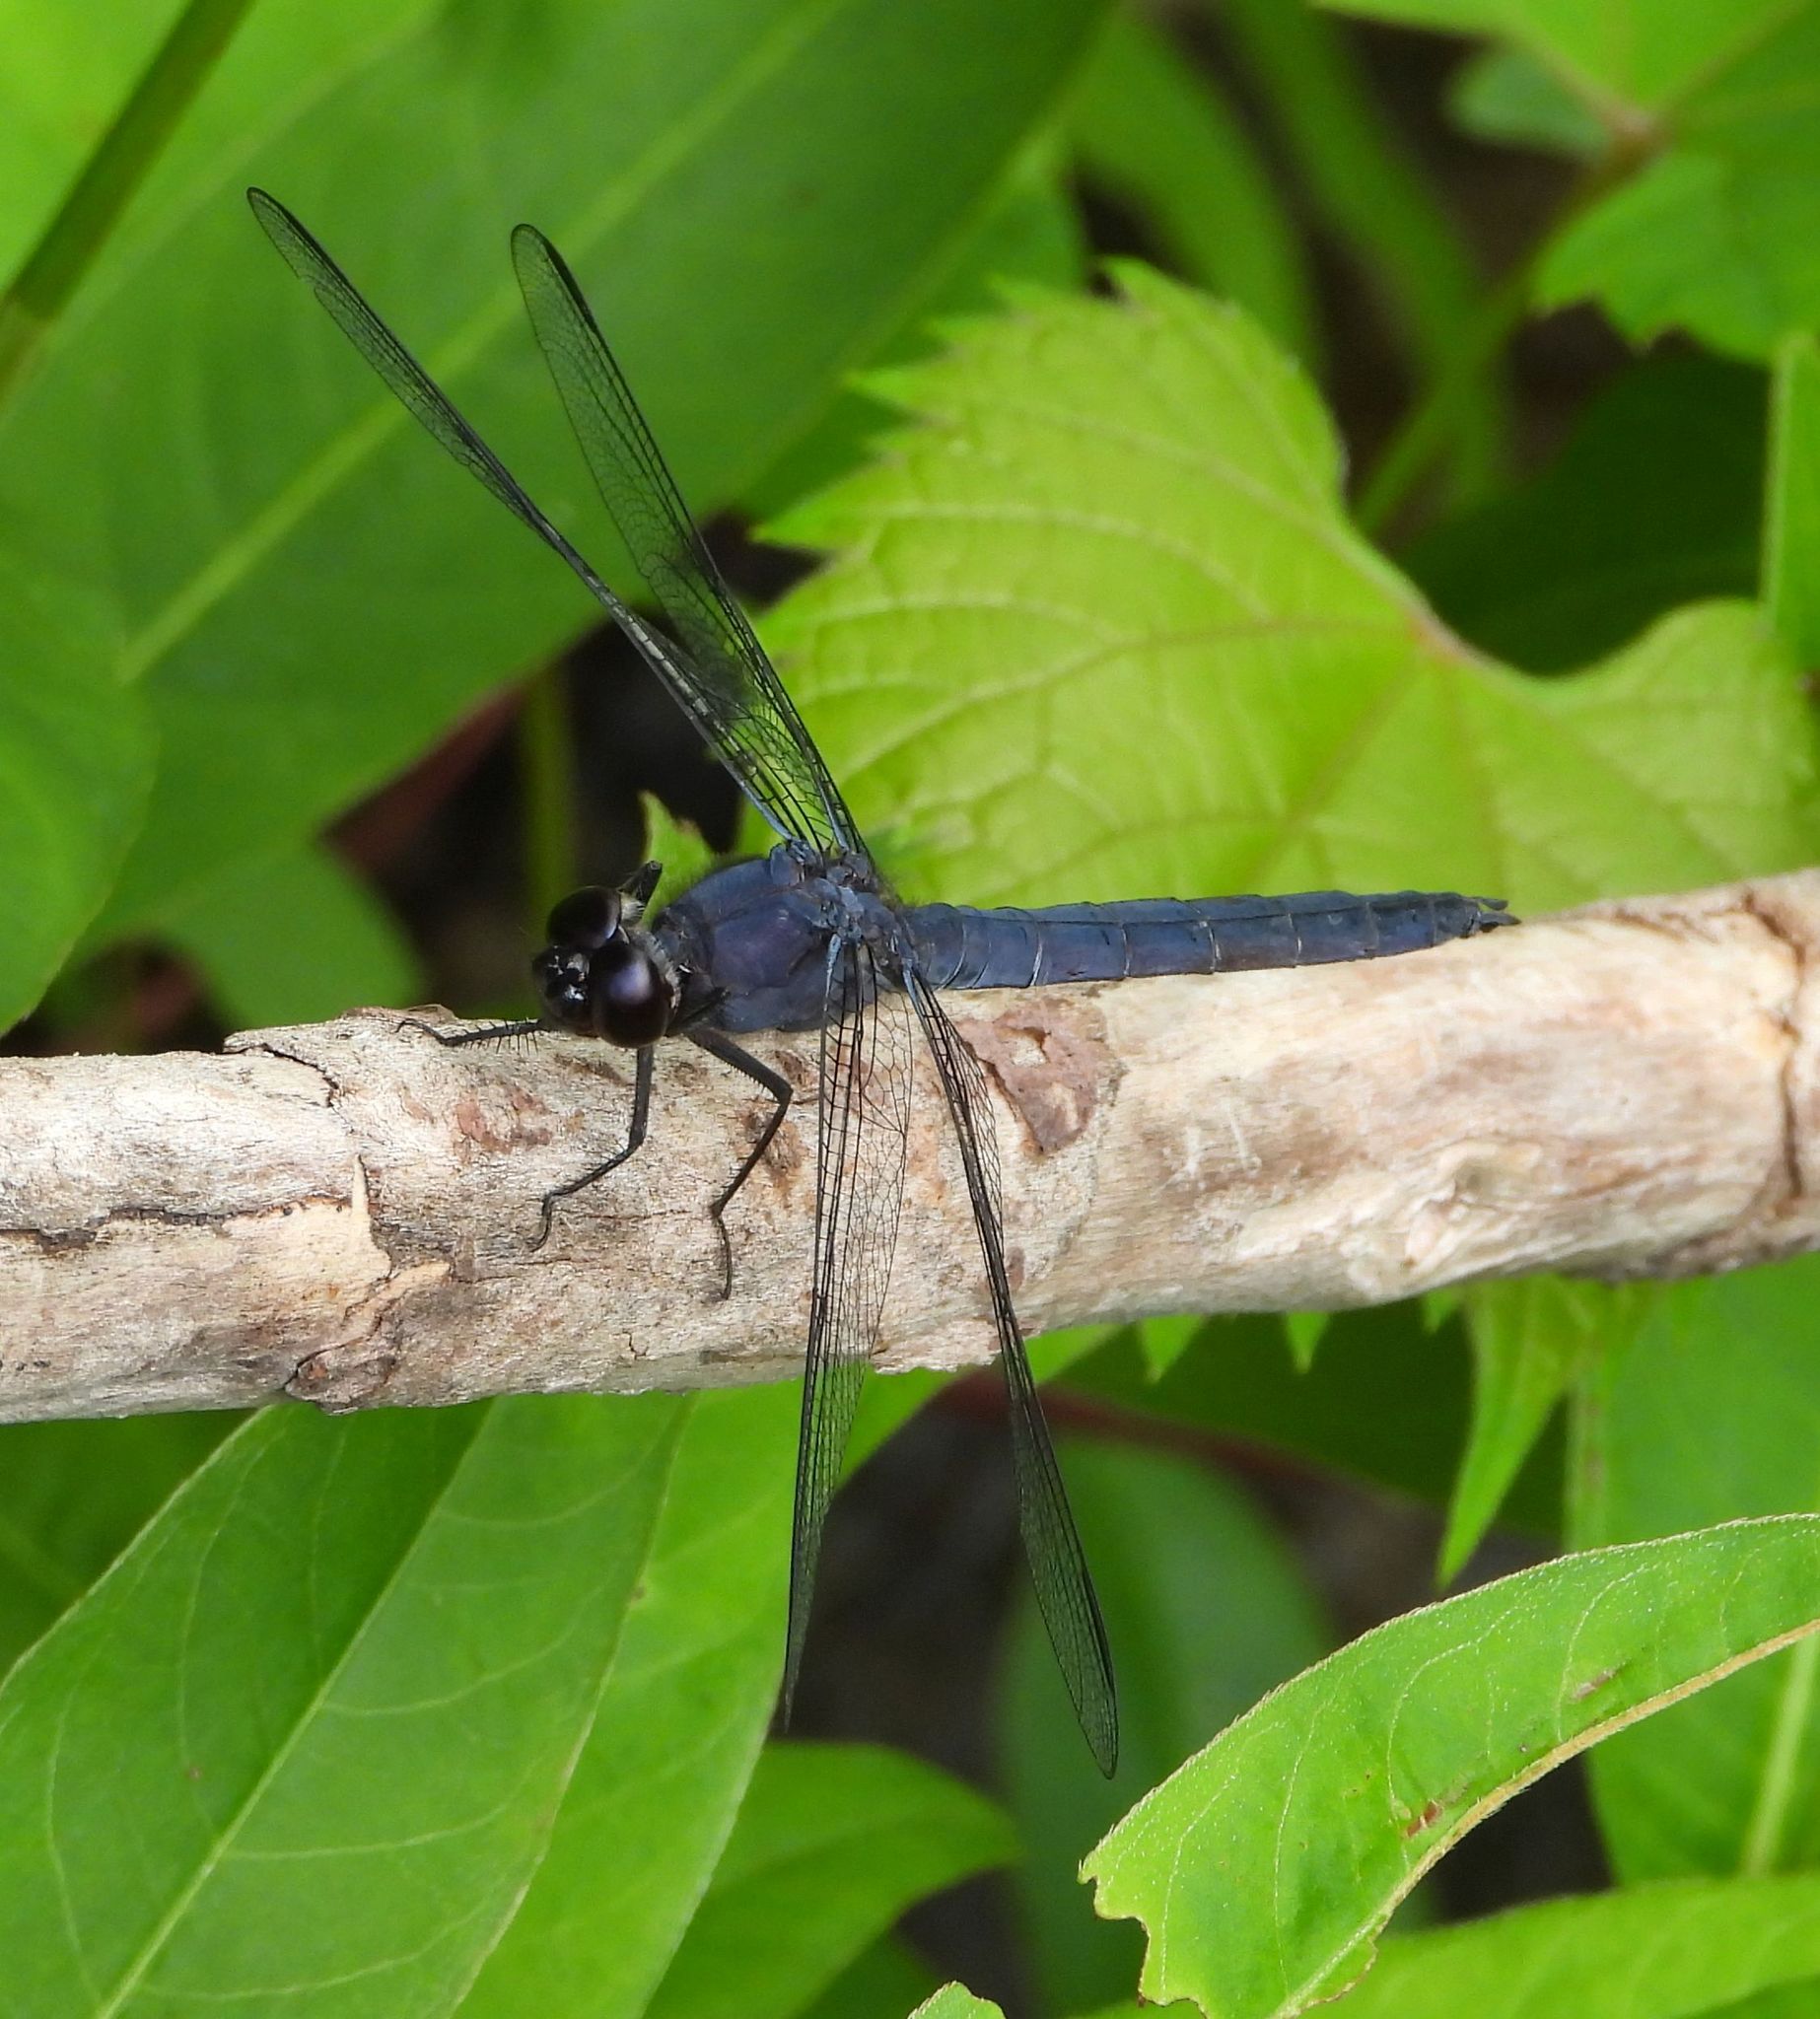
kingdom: Animalia
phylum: Arthropoda
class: Insecta
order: Odonata
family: Libellulidae
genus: Libellula
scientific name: Libellula incesta
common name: Slaty skimmer
